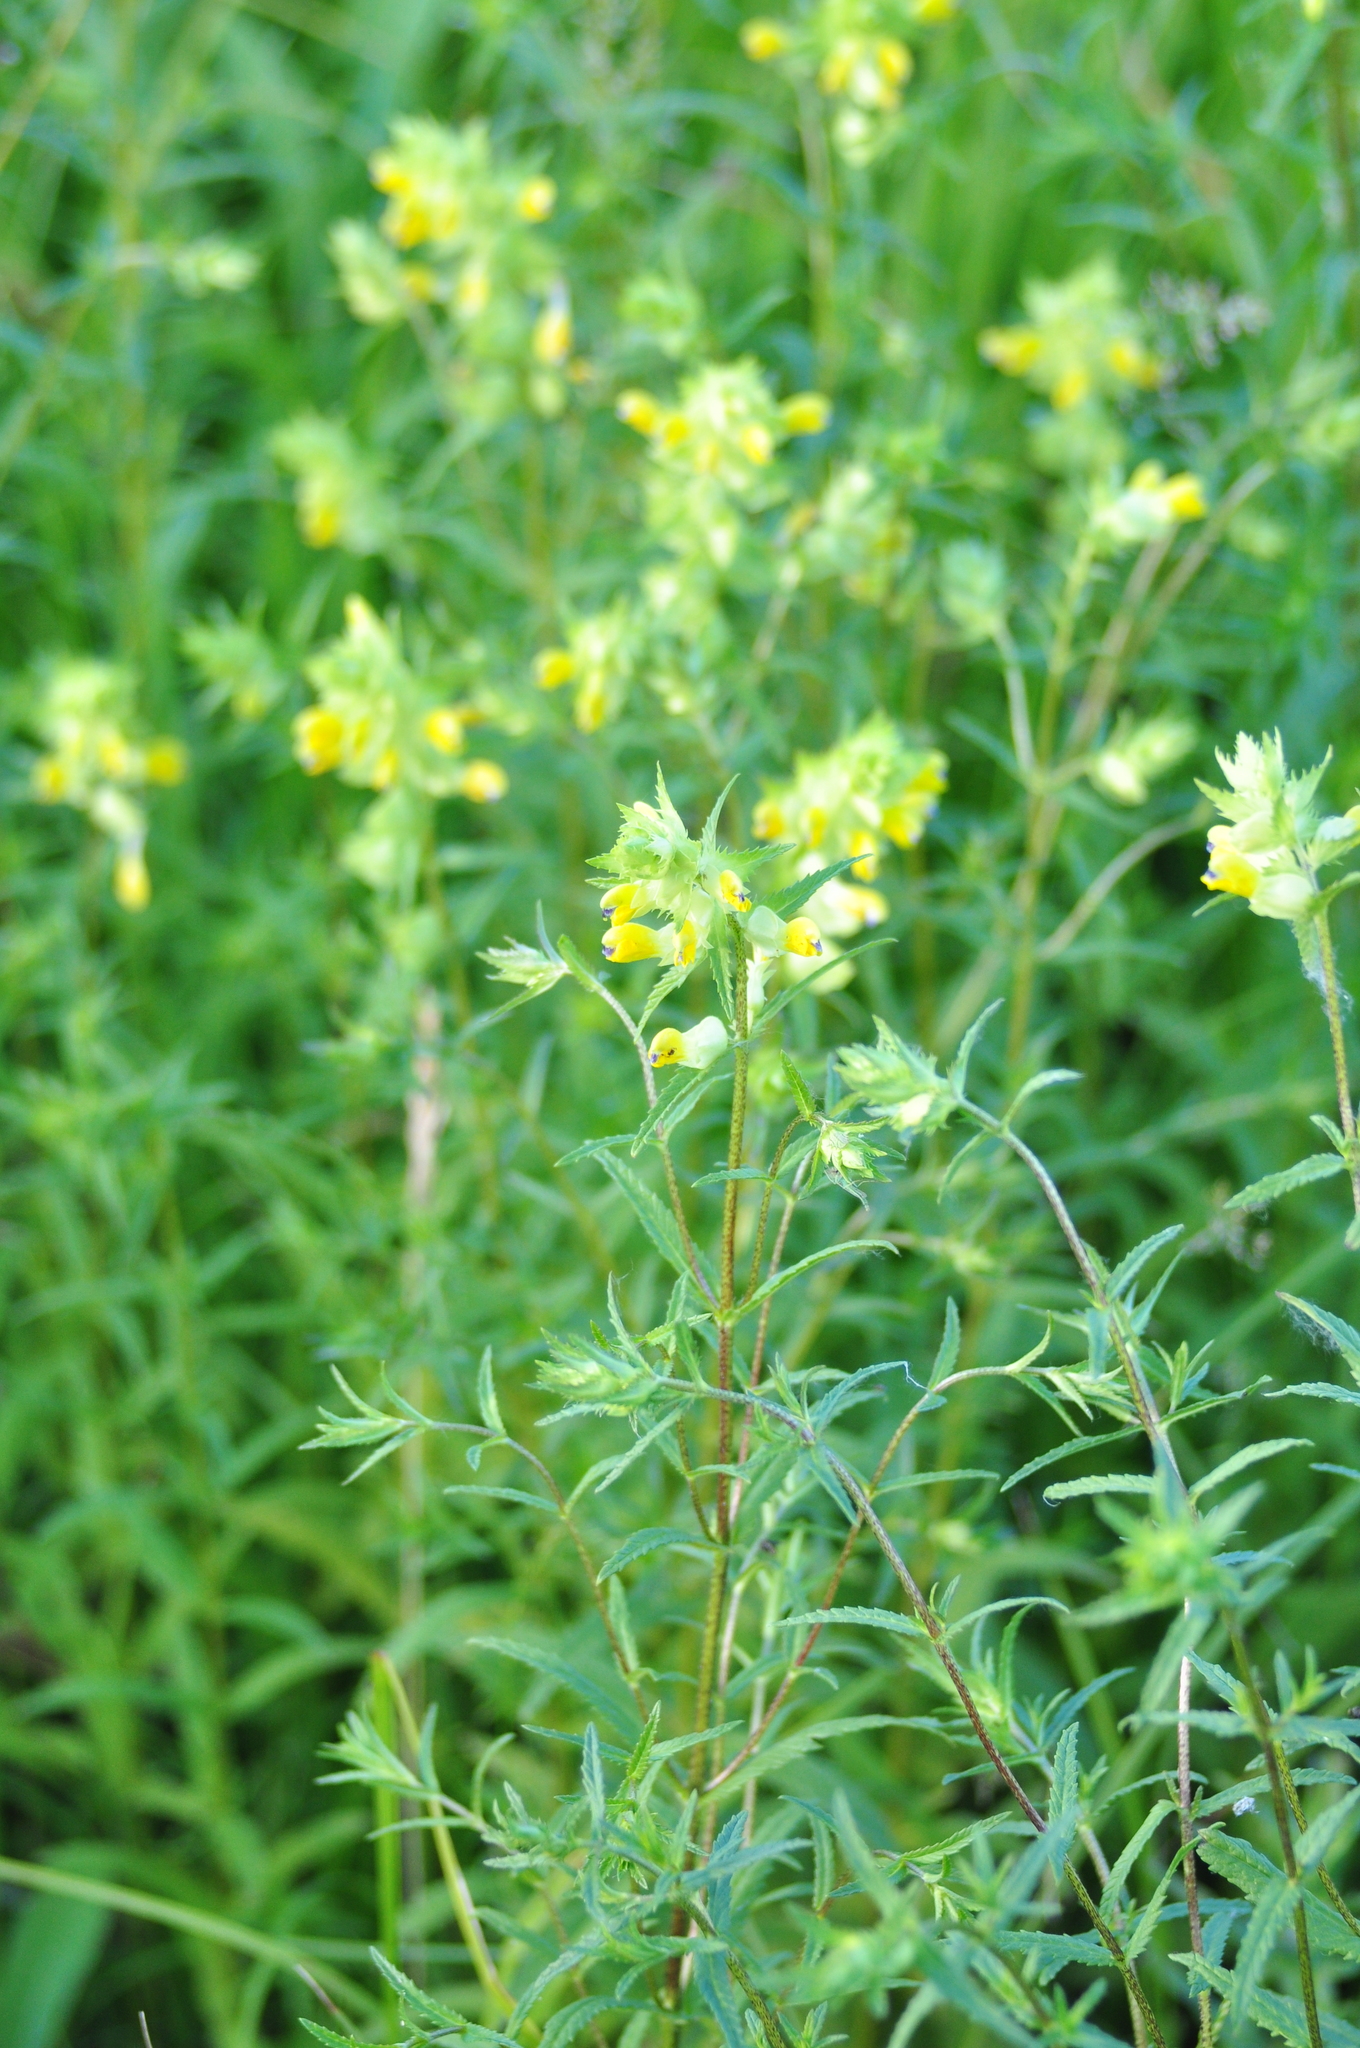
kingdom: Plantae
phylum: Tracheophyta
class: Magnoliopsida
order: Lamiales
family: Orobanchaceae
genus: Rhinanthus
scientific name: Rhinanthus serotinus
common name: Late-flowering yellow rattle
